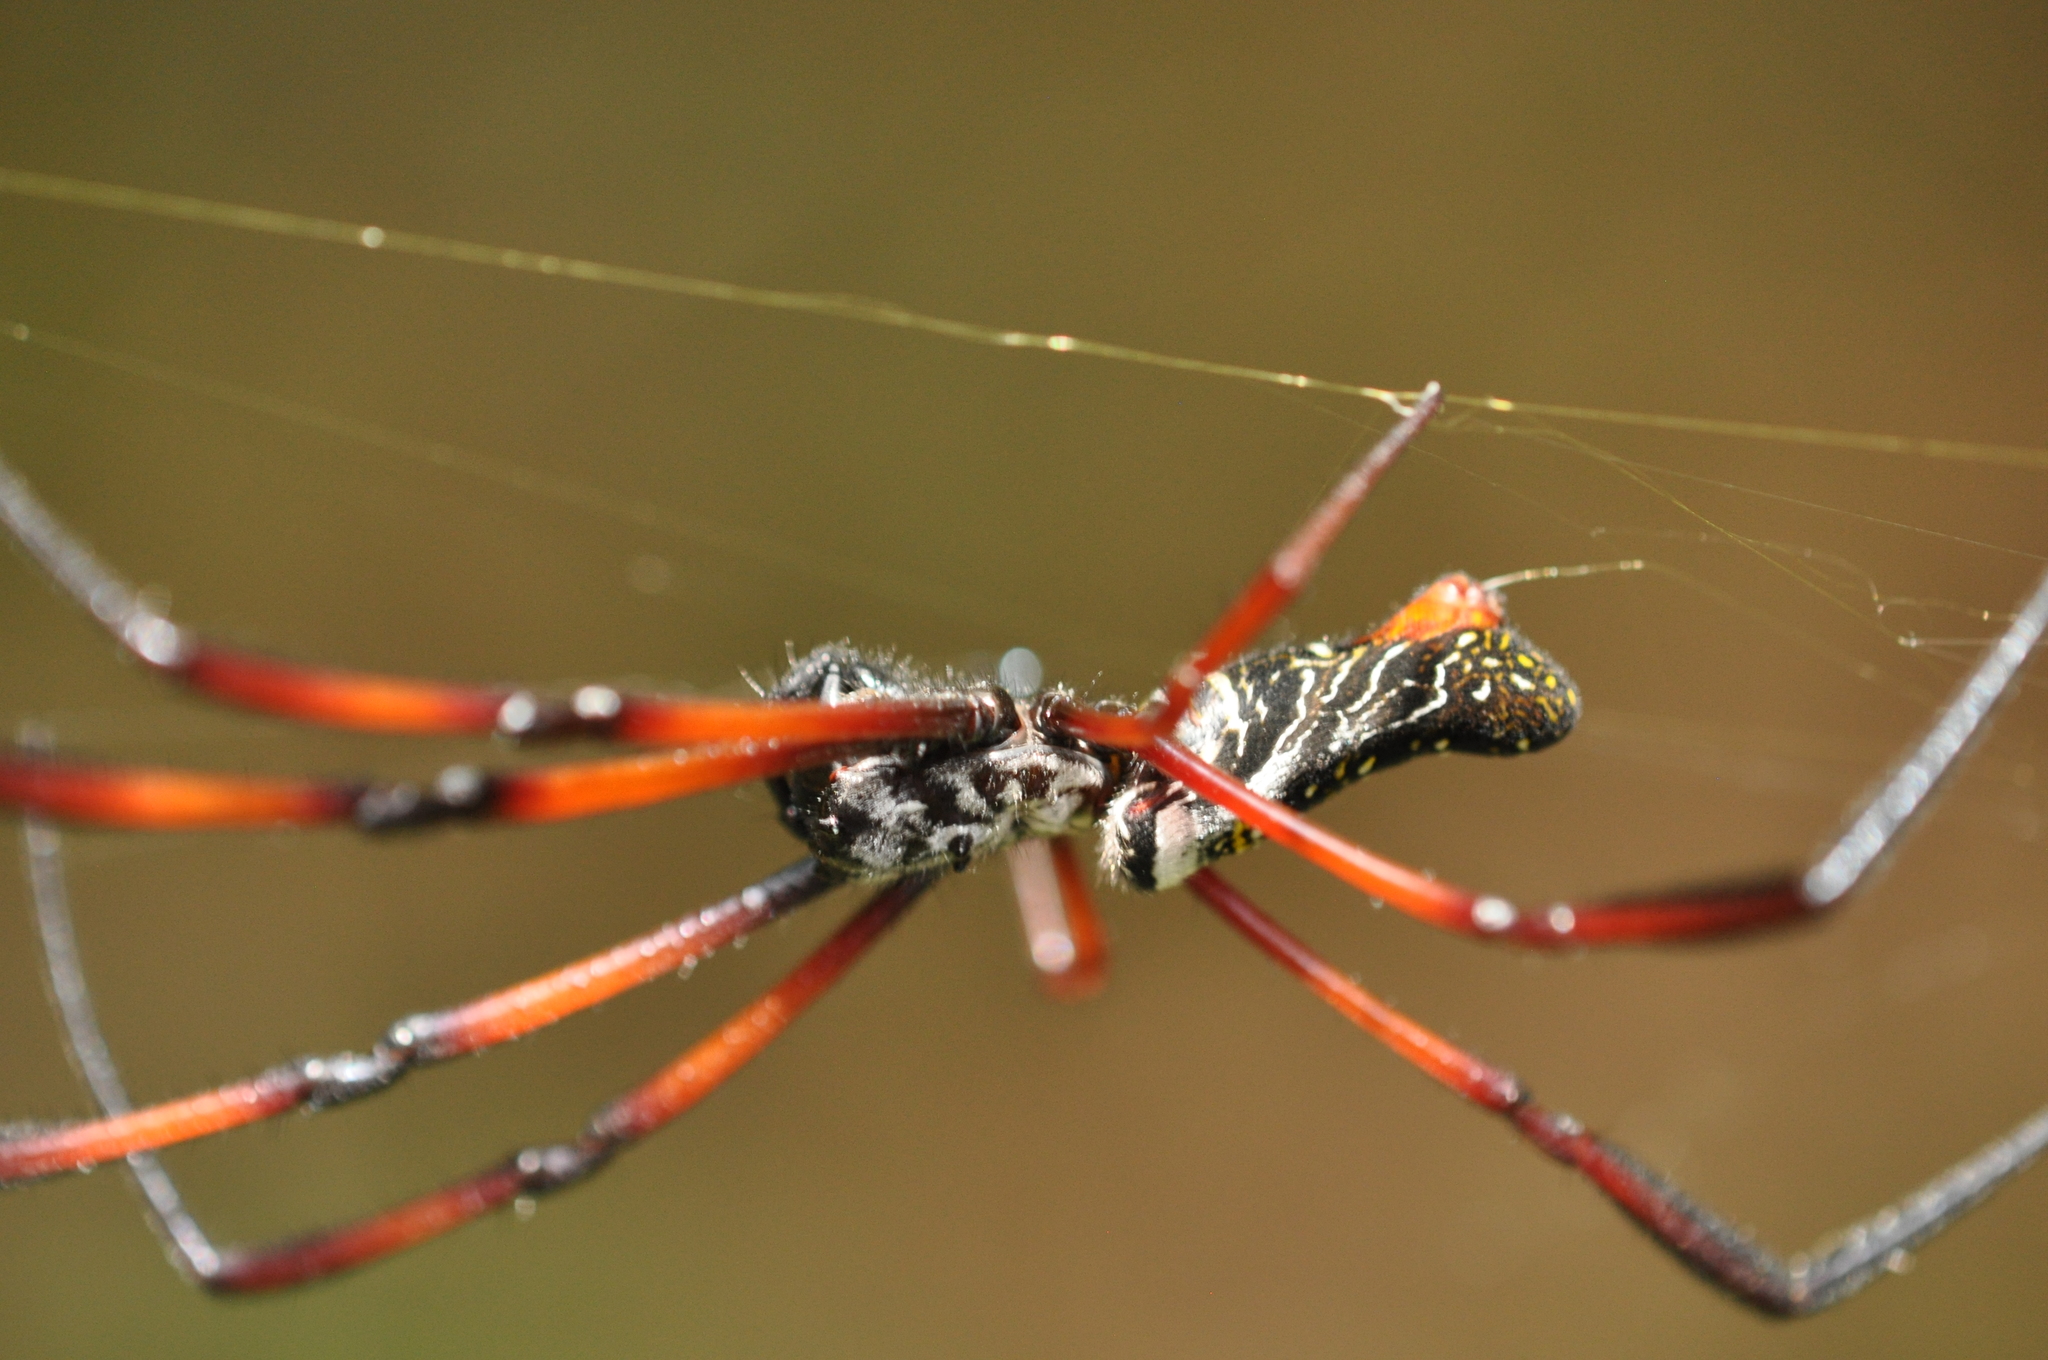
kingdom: Animalia
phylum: Arthropoda
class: Arachnida
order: Araneae
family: Araneidae
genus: Trichonephila
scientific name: Trichonephila inaurata
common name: Red-legged golden orb weaver
